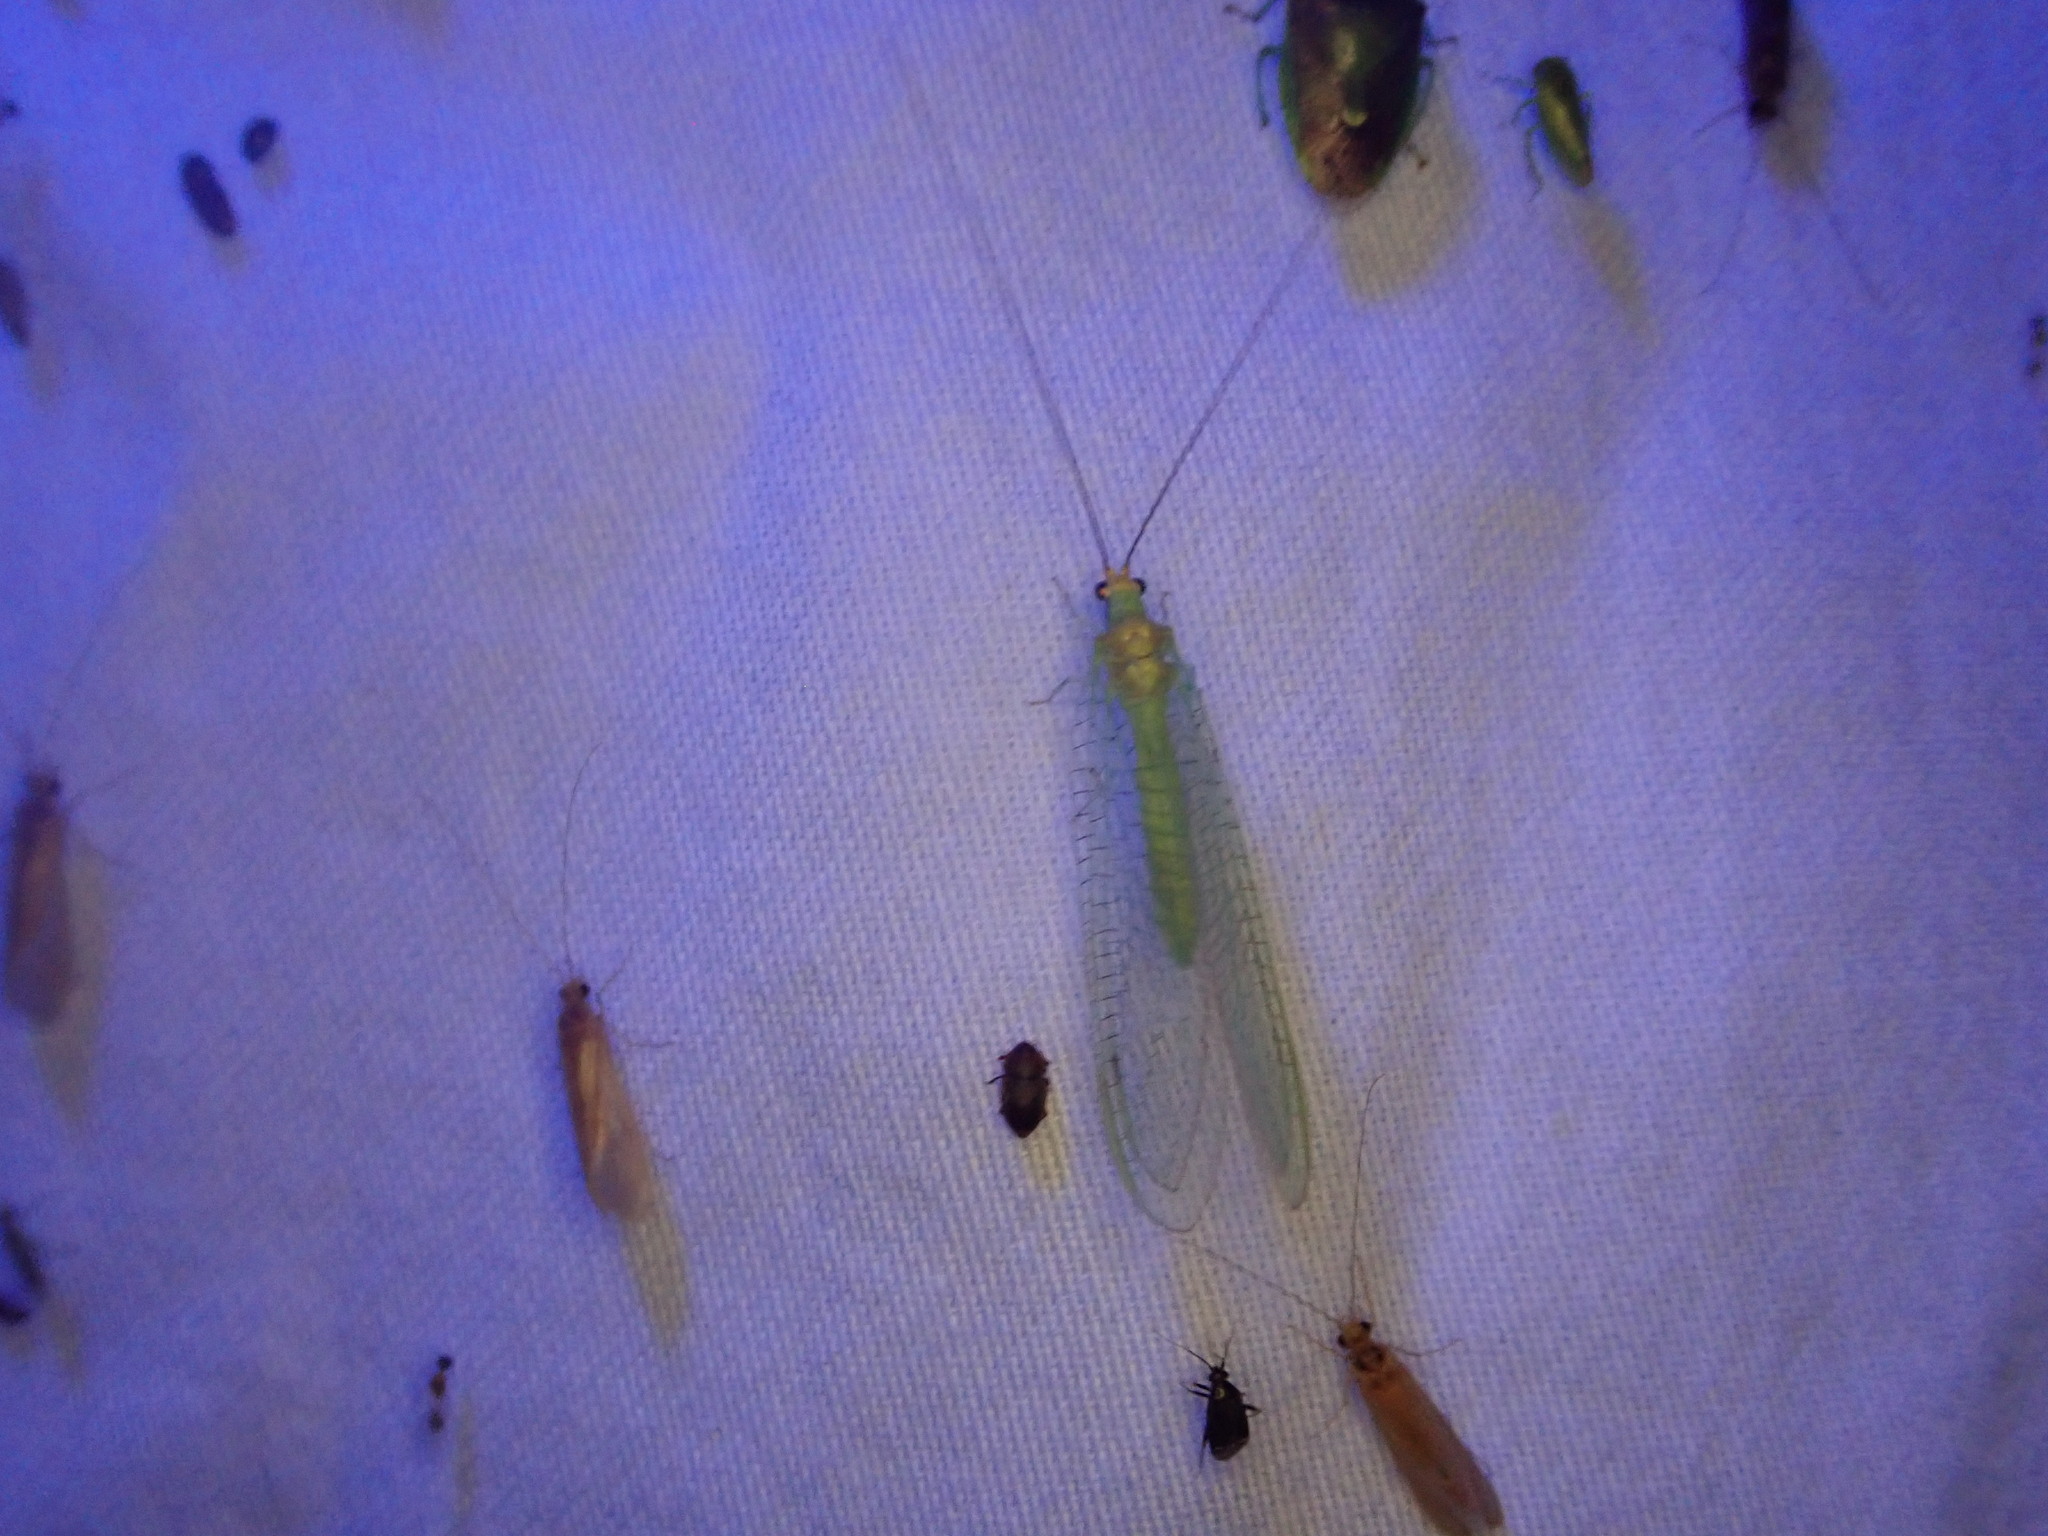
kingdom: Animalia
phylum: Arthropoda
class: Insecta
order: Neuroptera
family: Chrysopidae
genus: Leucochrysa
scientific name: Leucochrysa pavida
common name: Lichen-carrying green lacewing
